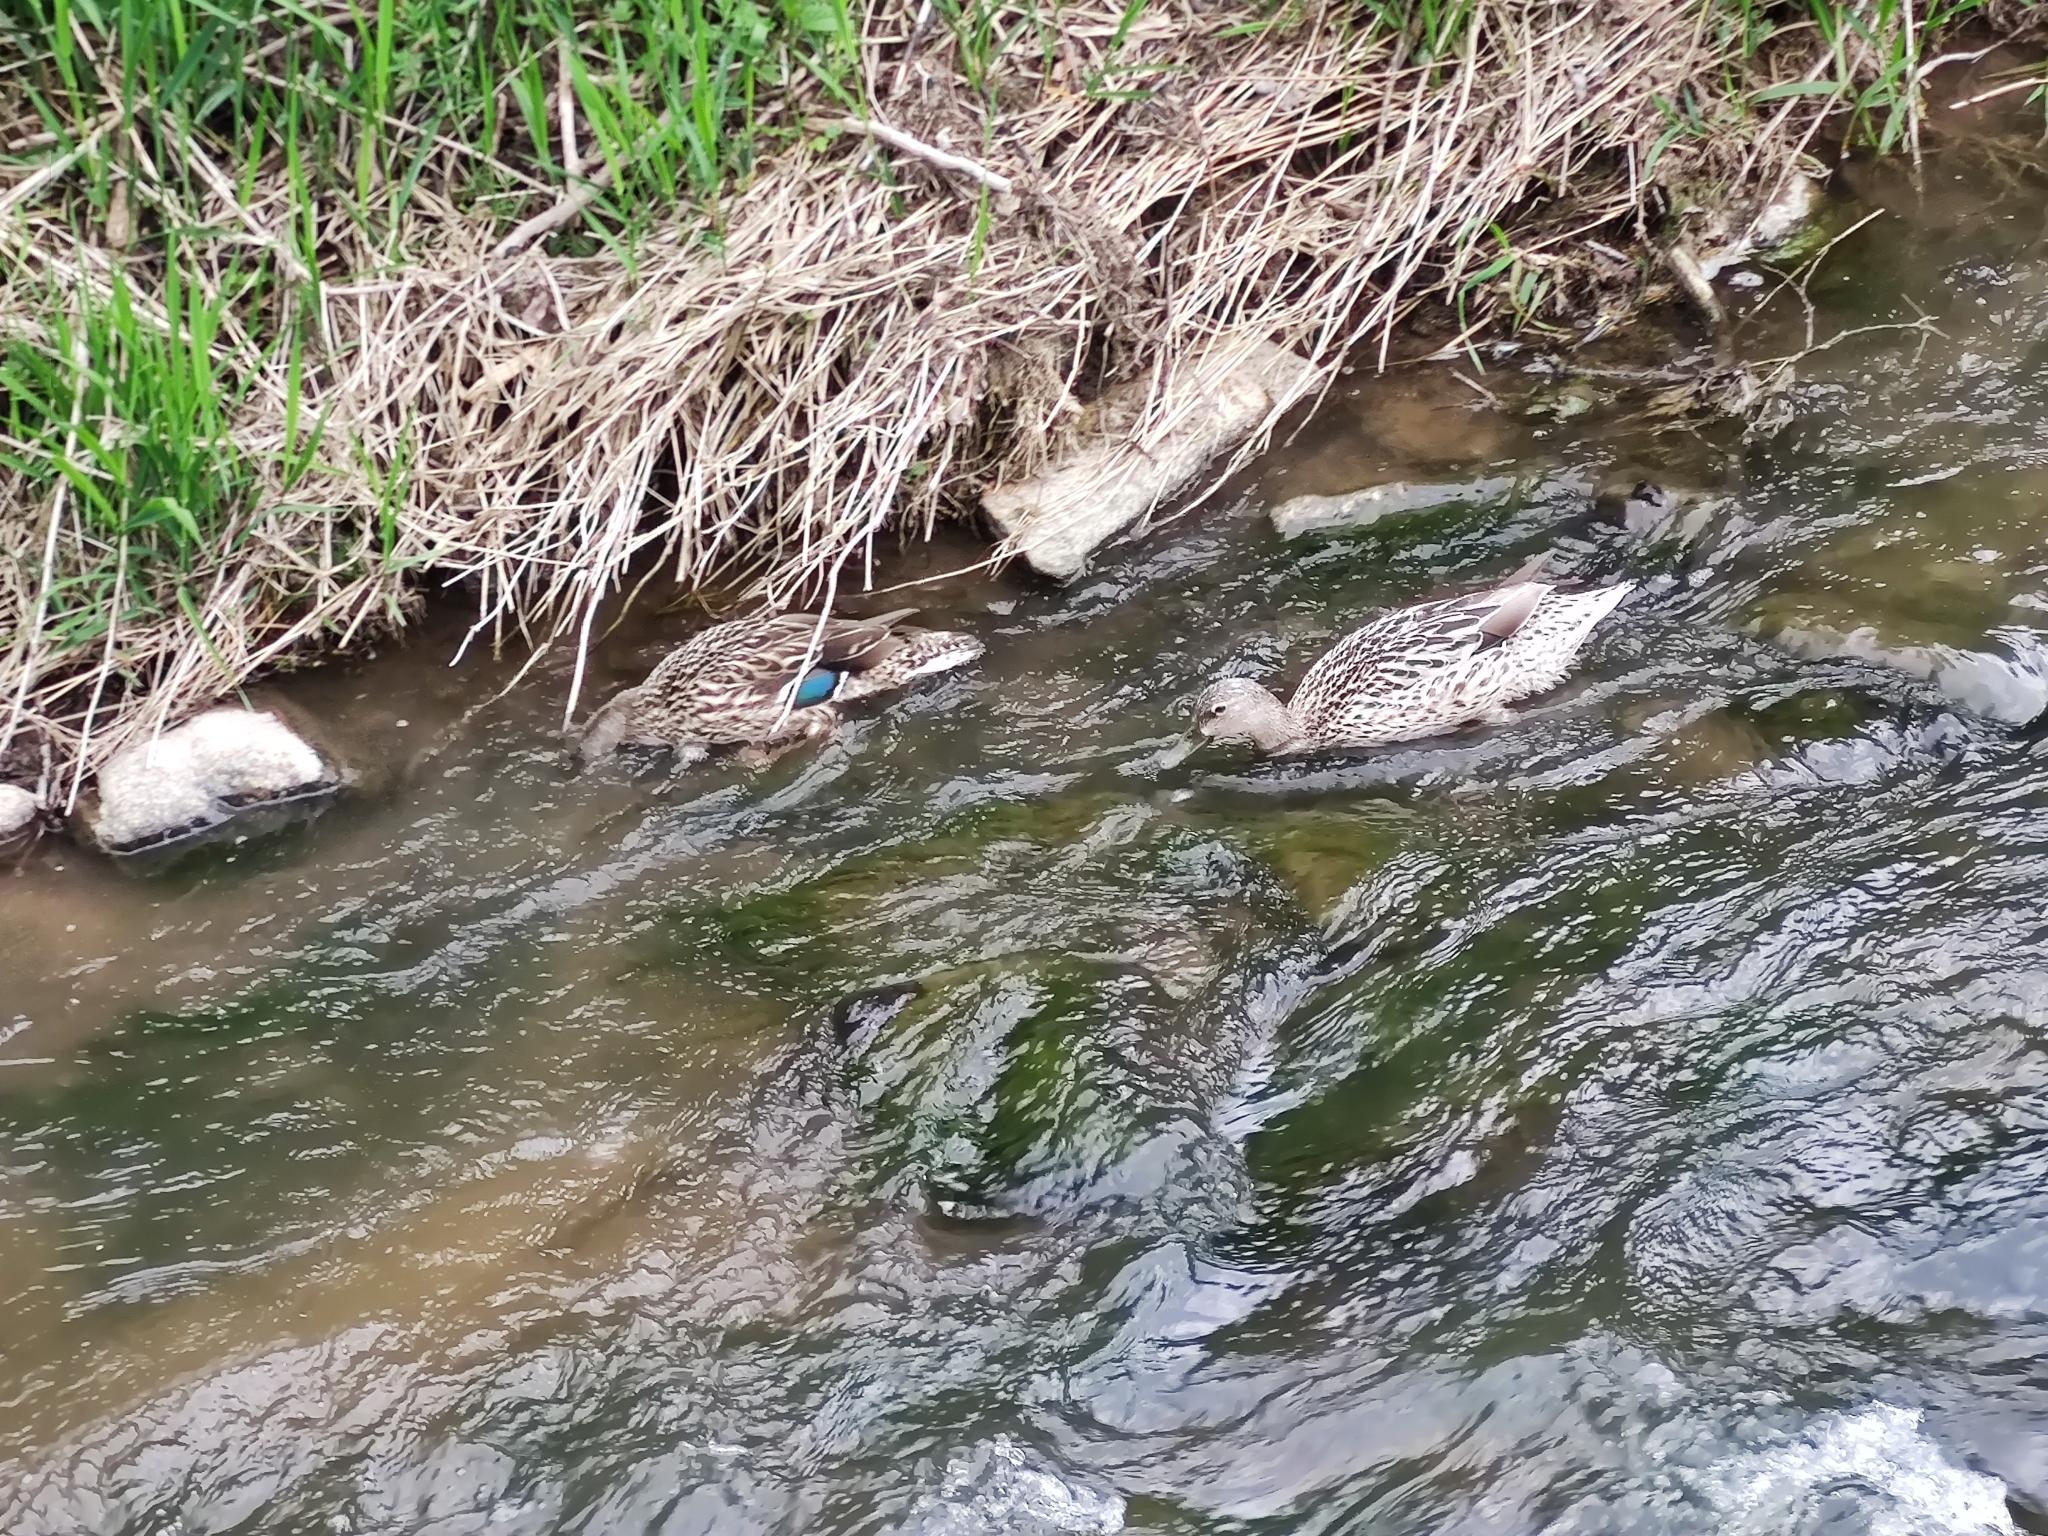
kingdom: Animalia
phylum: Chordata
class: Aves
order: Anseriformes
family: Anatidae
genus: Anas
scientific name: Anas platyrhynchos
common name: Mallard
